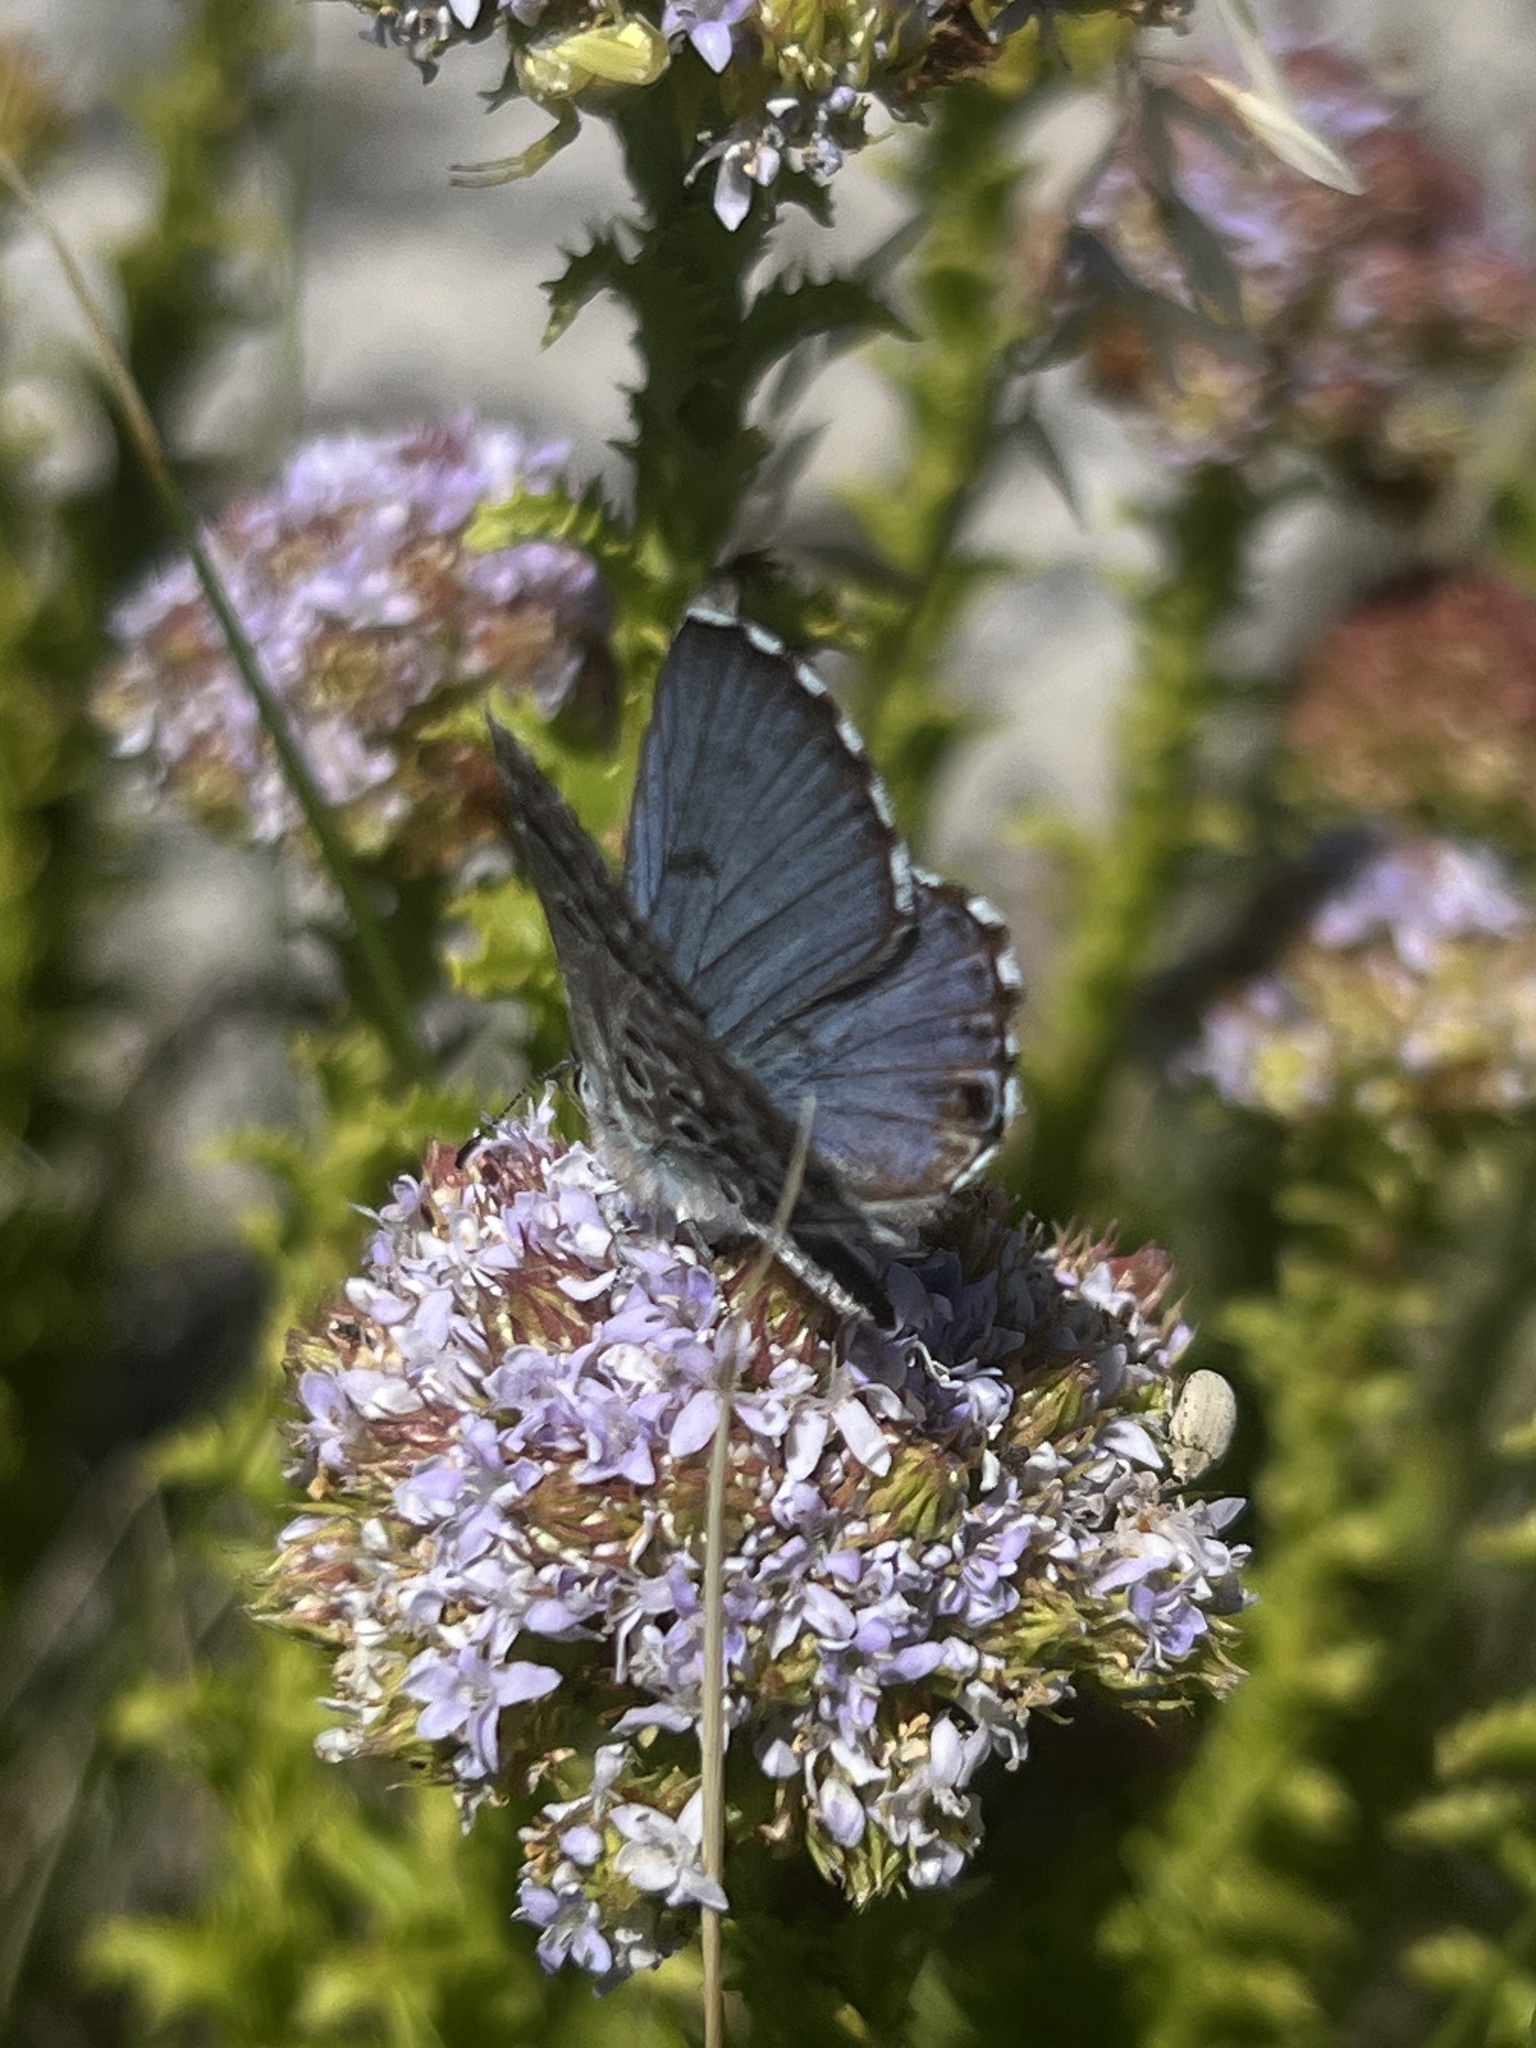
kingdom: Animalia
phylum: Arthropoda
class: Insecta
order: Lepidoptera
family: Lycaenidae
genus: Lepidochrysops
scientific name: Lepidochrysops
